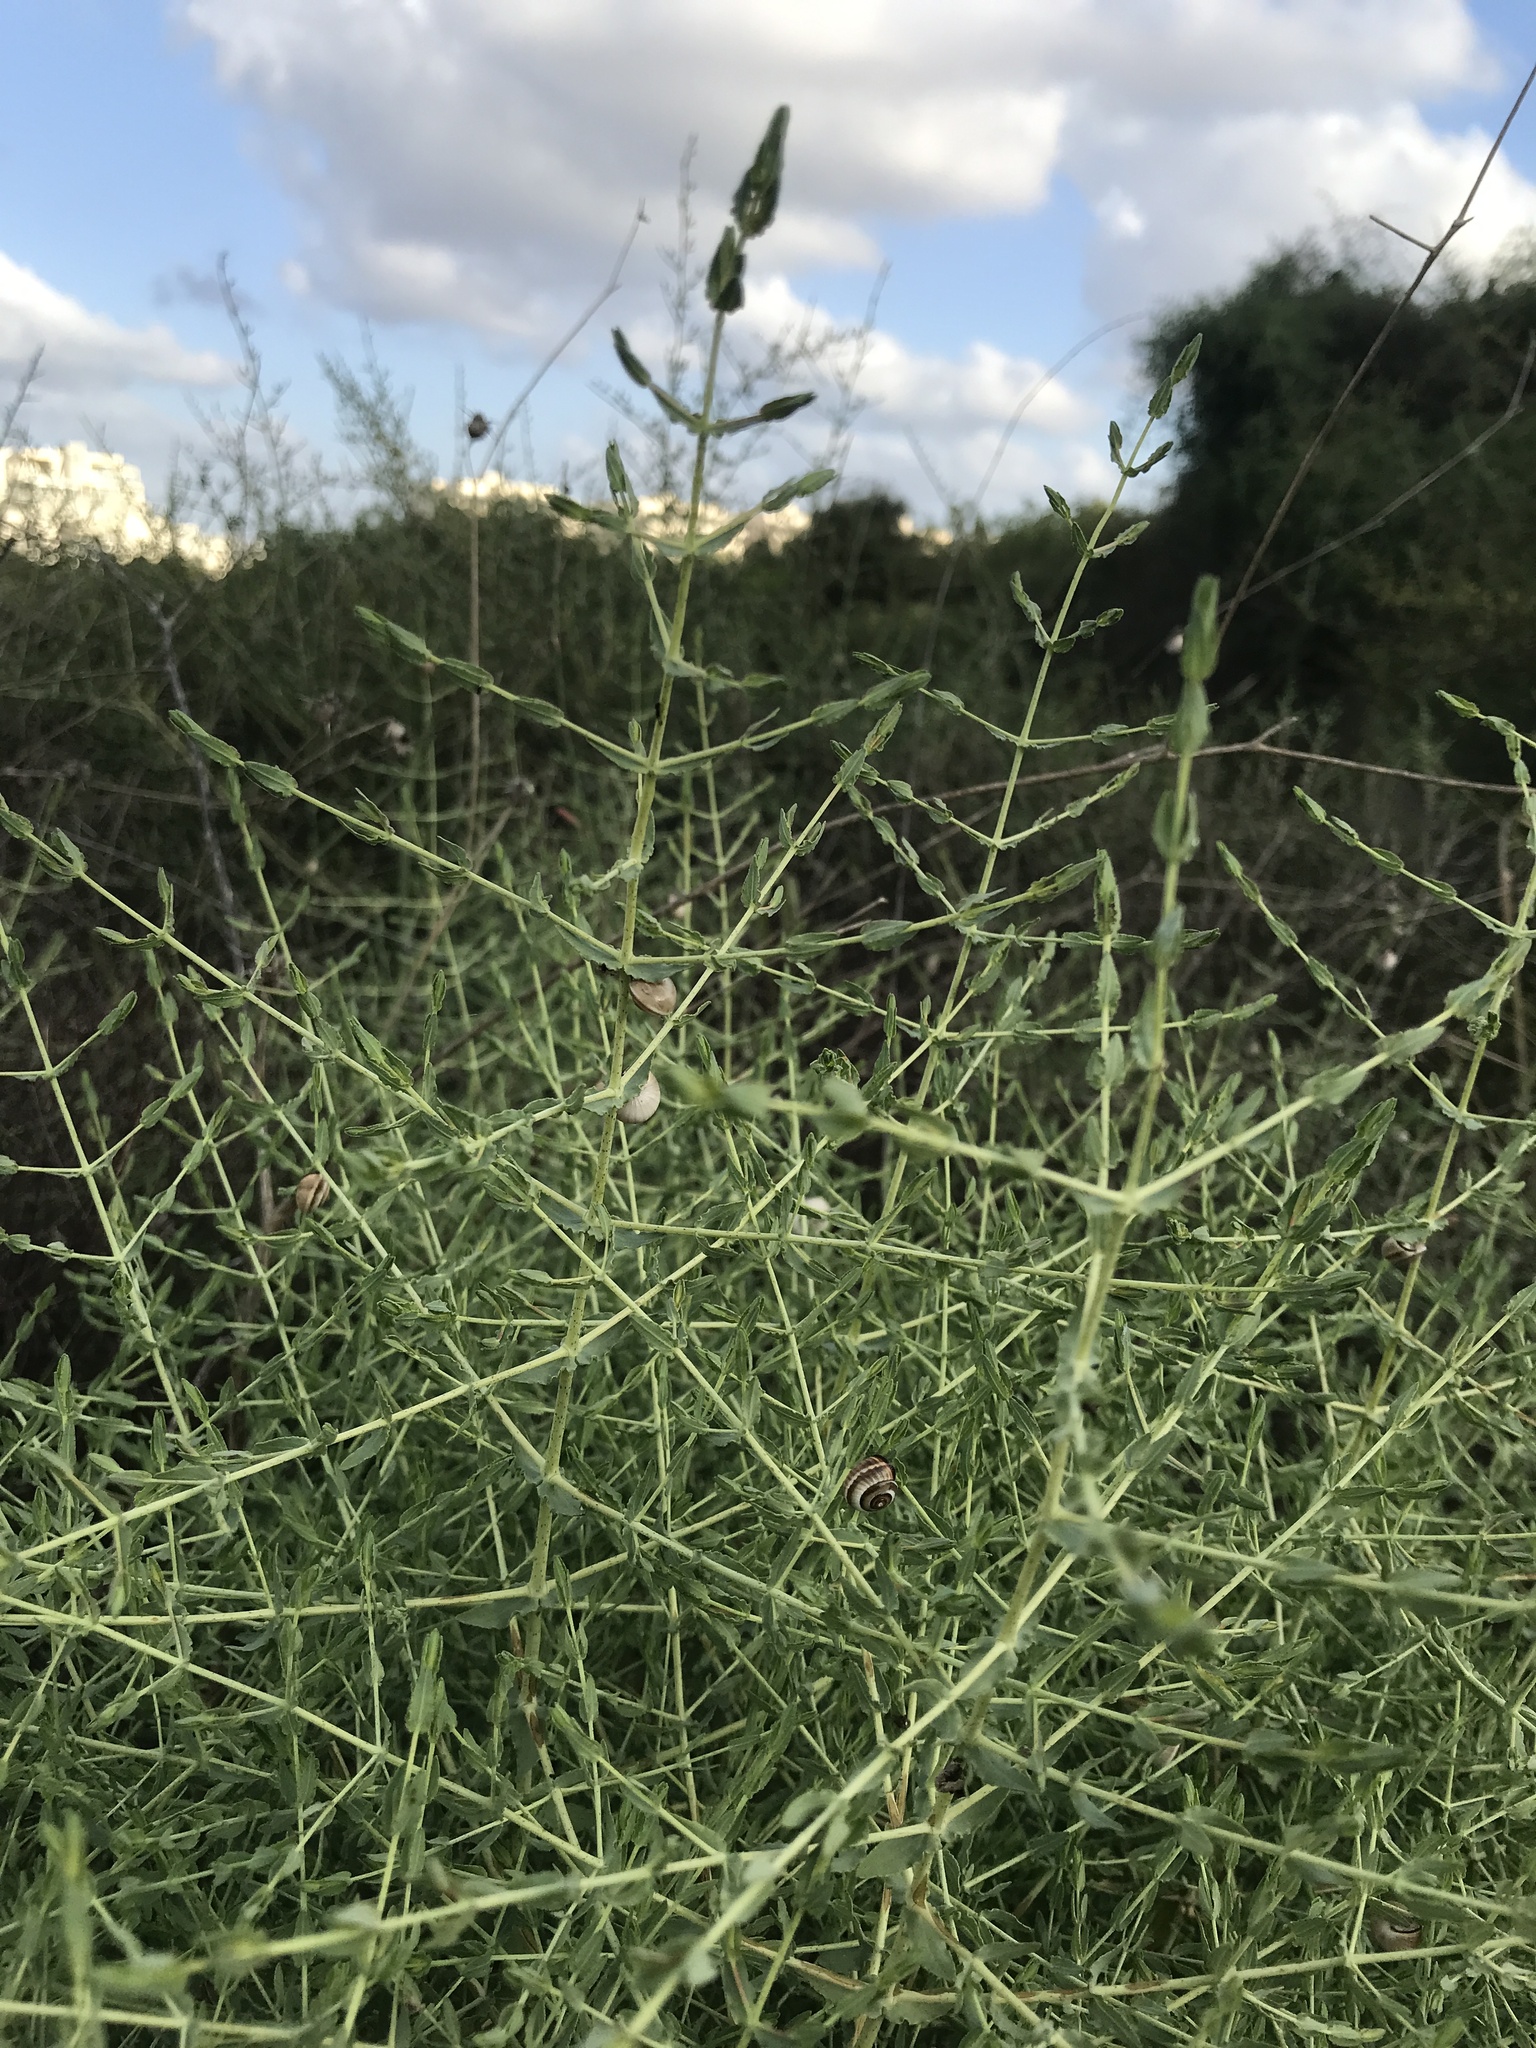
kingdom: Plantae
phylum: Tracheophyta
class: Magnoliopsida
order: Malpighiales
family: Hypericaceae
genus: Hypericum
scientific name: Hypericum triquetrifolium
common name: Tangled hypericum
